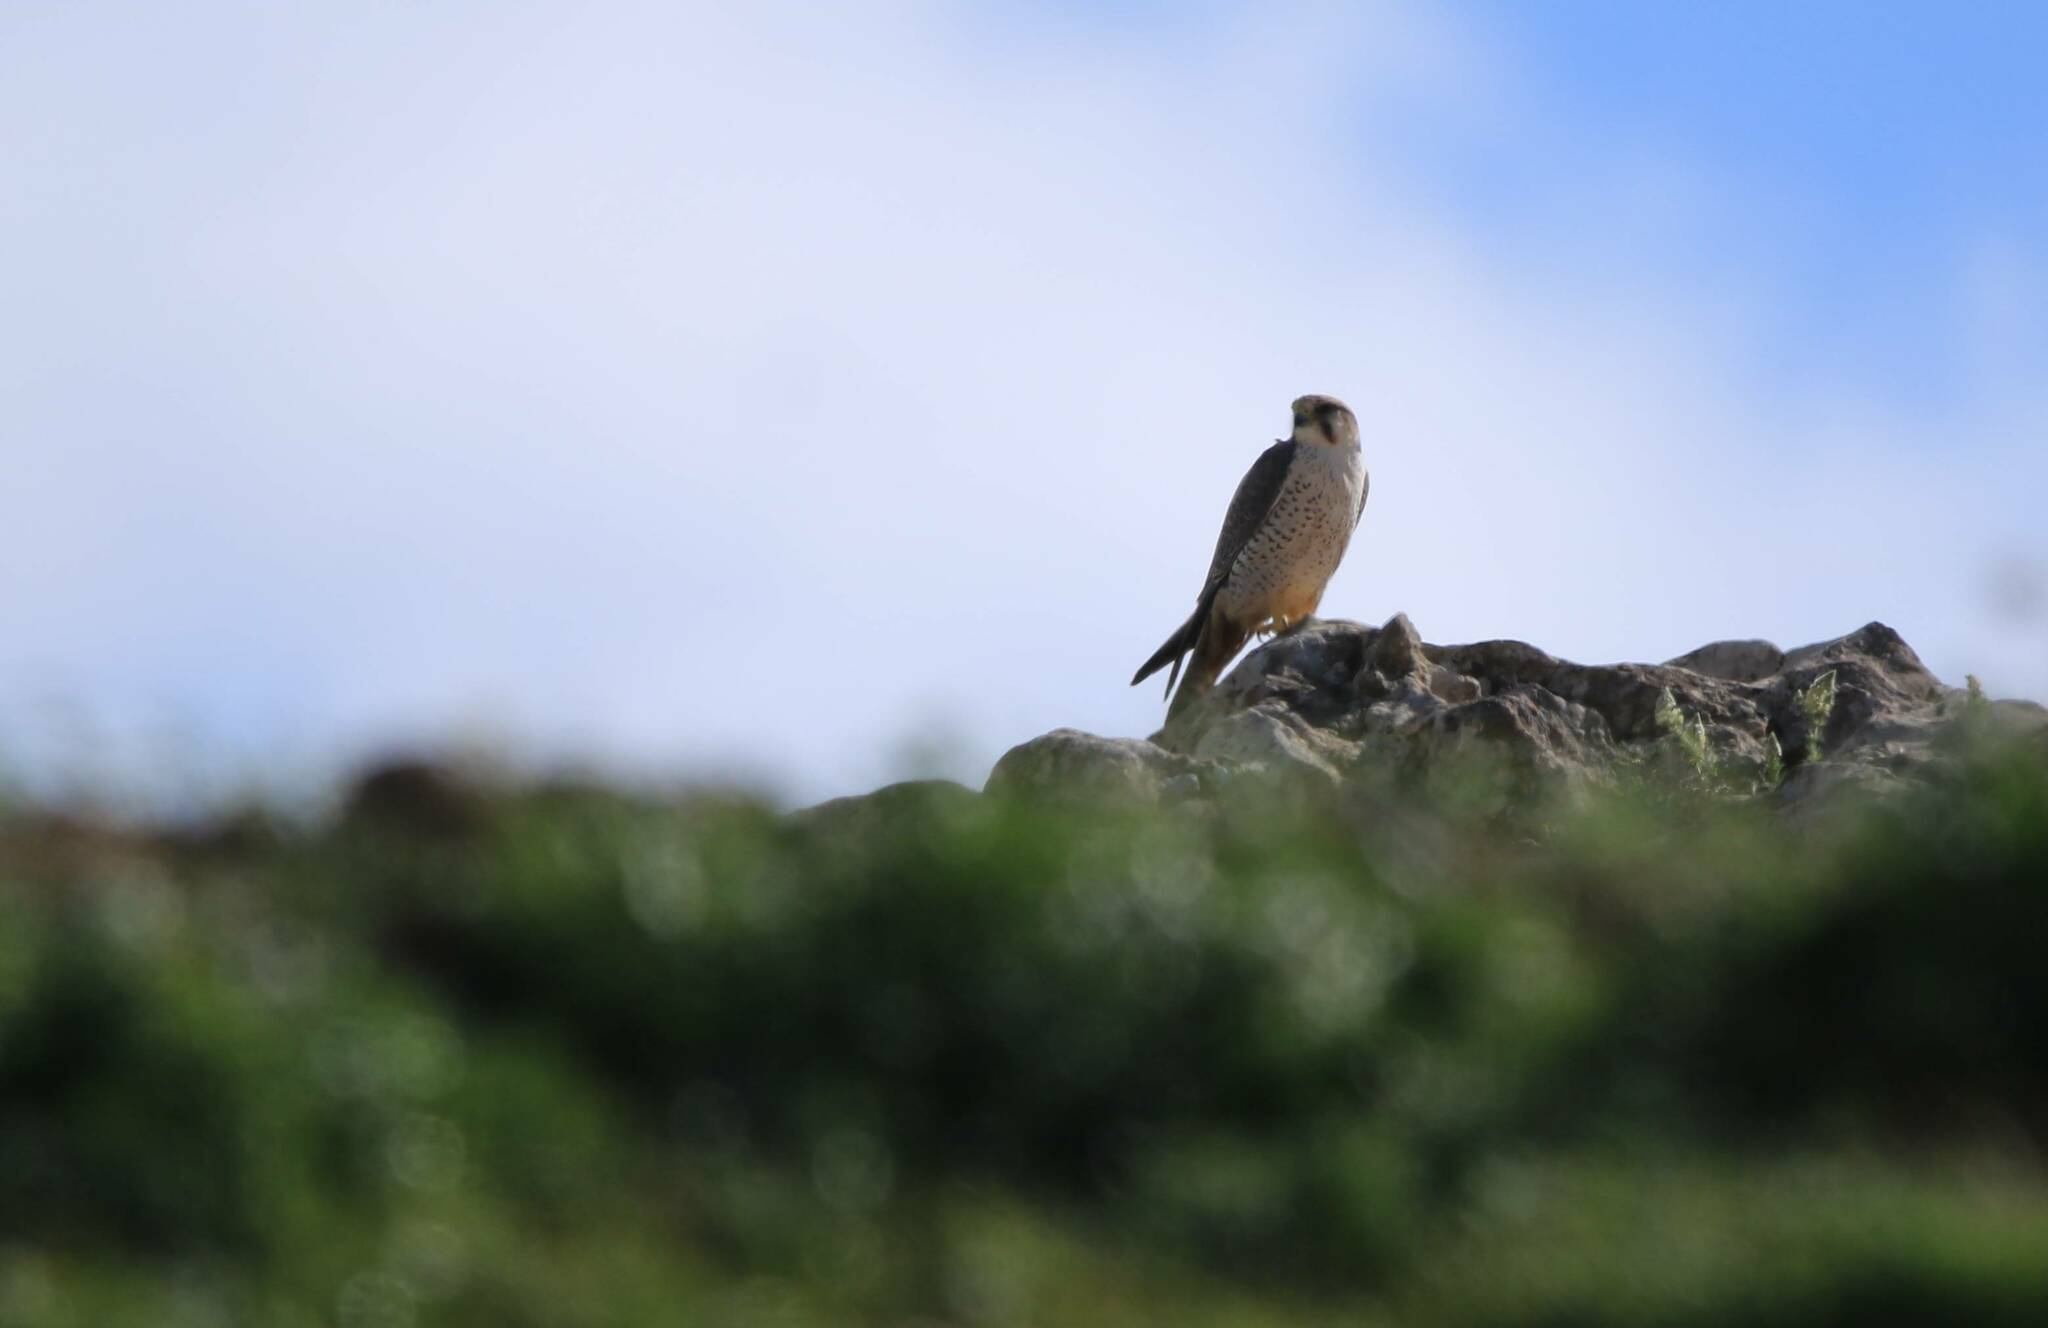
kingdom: Animalia
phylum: Chordata
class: Aves
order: Falconiformes
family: Falconidae
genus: Falco
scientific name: Falco biarmicus
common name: Lanner falcon
